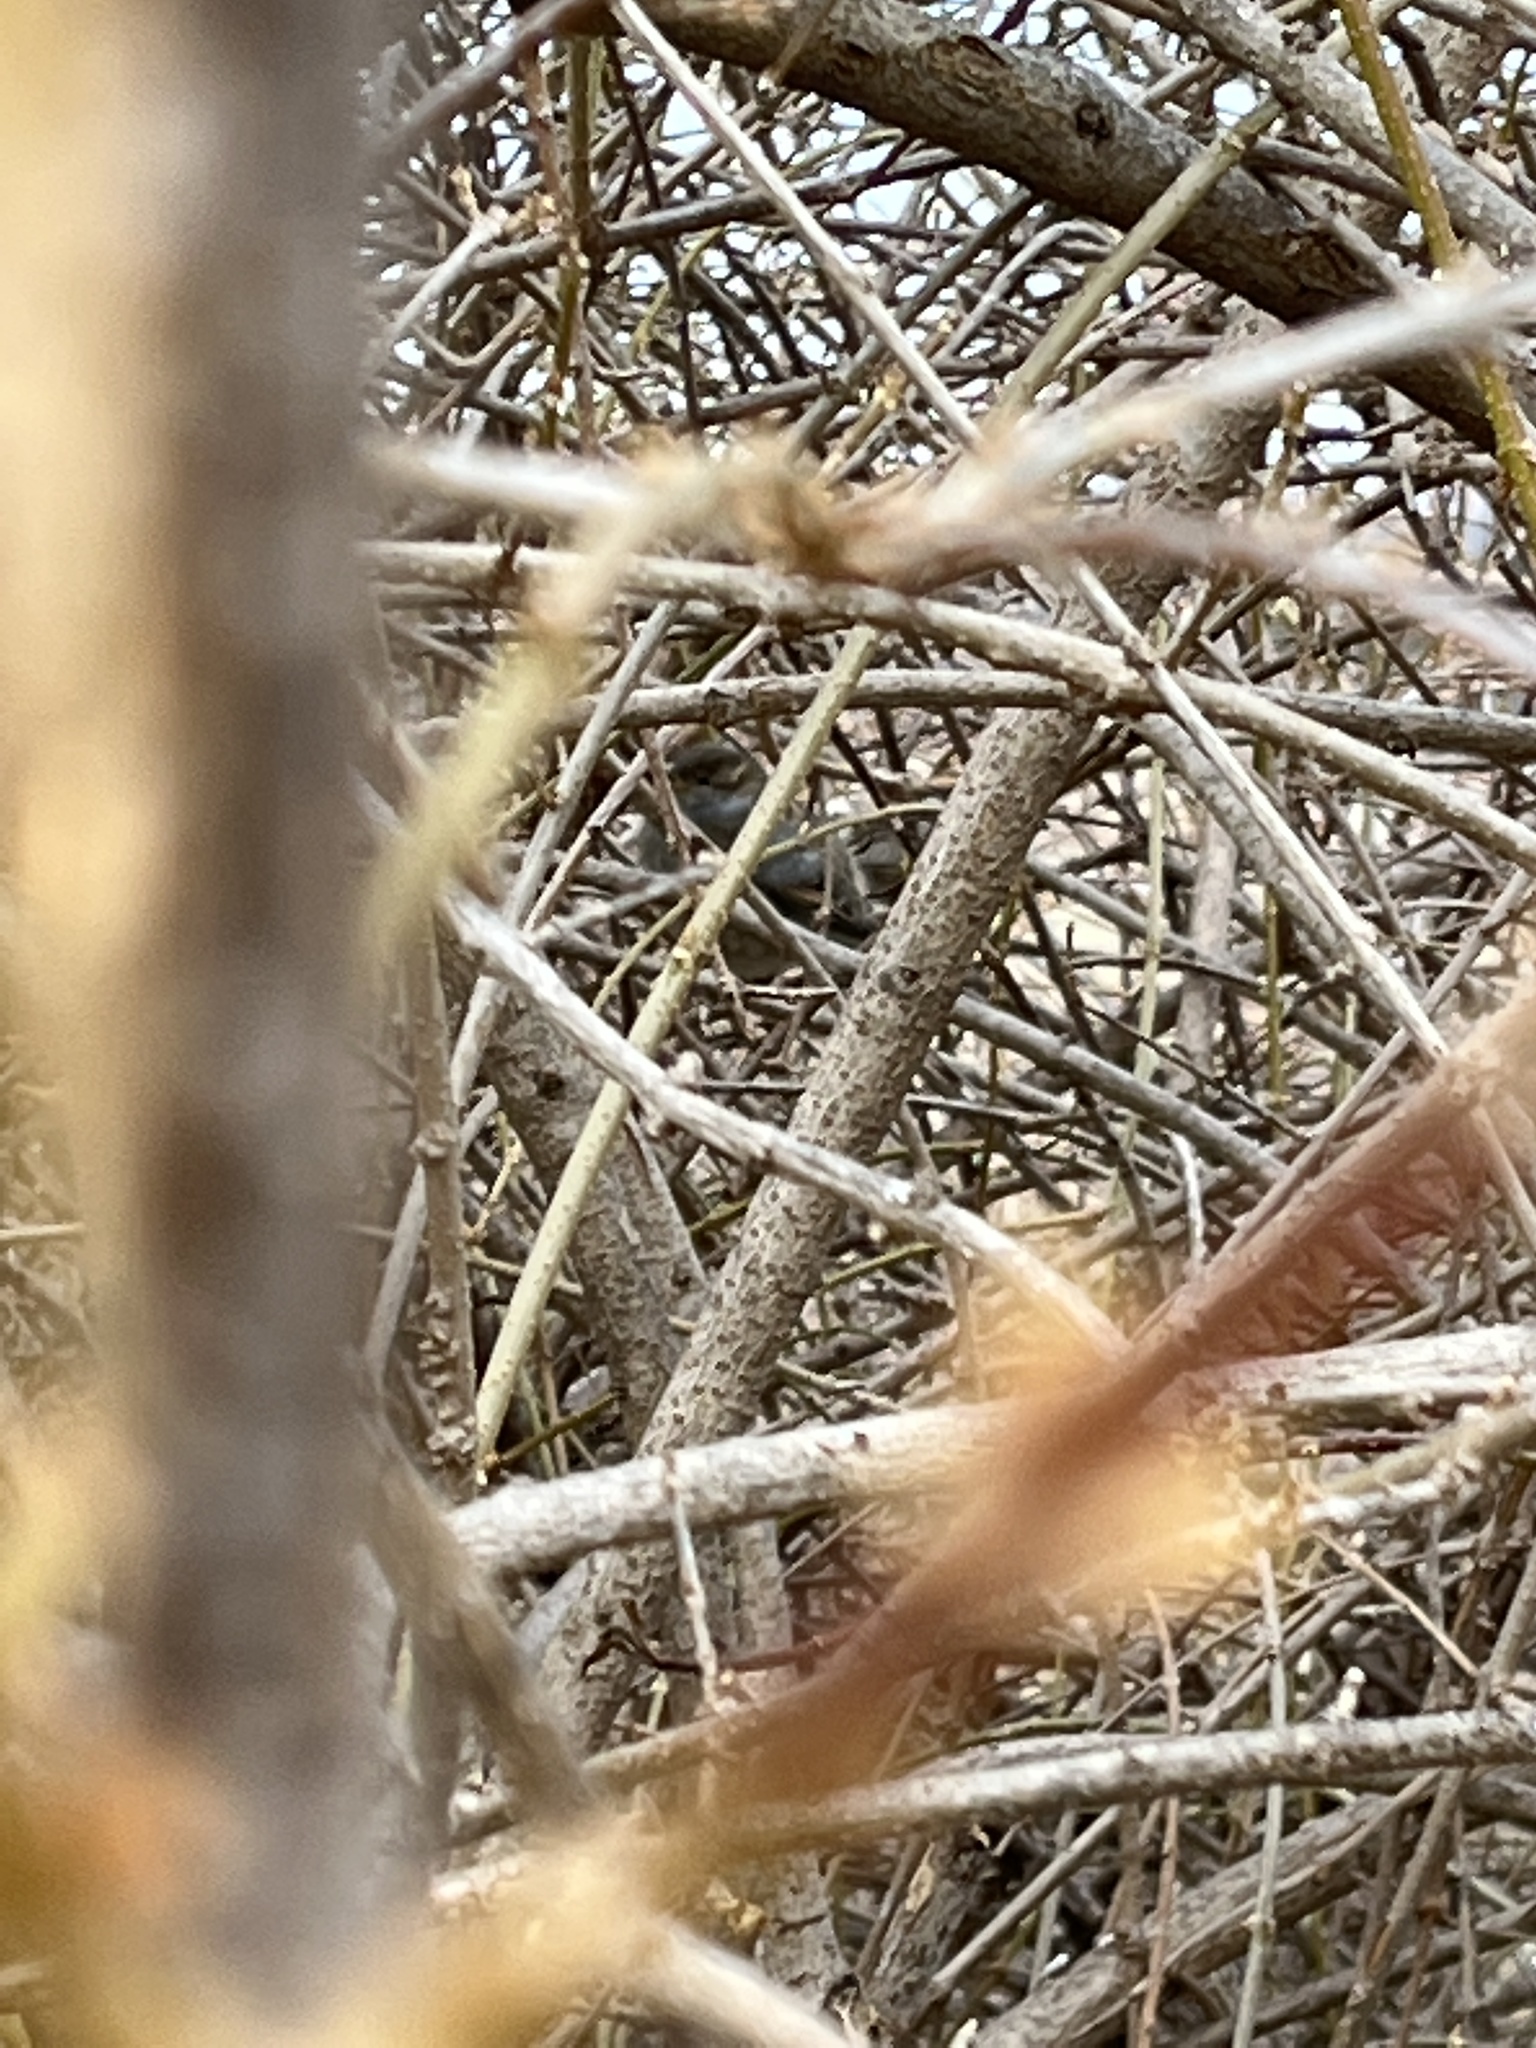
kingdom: Animalia
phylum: Chordata
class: Aves
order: Passeriformes
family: Passeridae
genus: Passer
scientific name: Passer domesticus
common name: House sparrow
